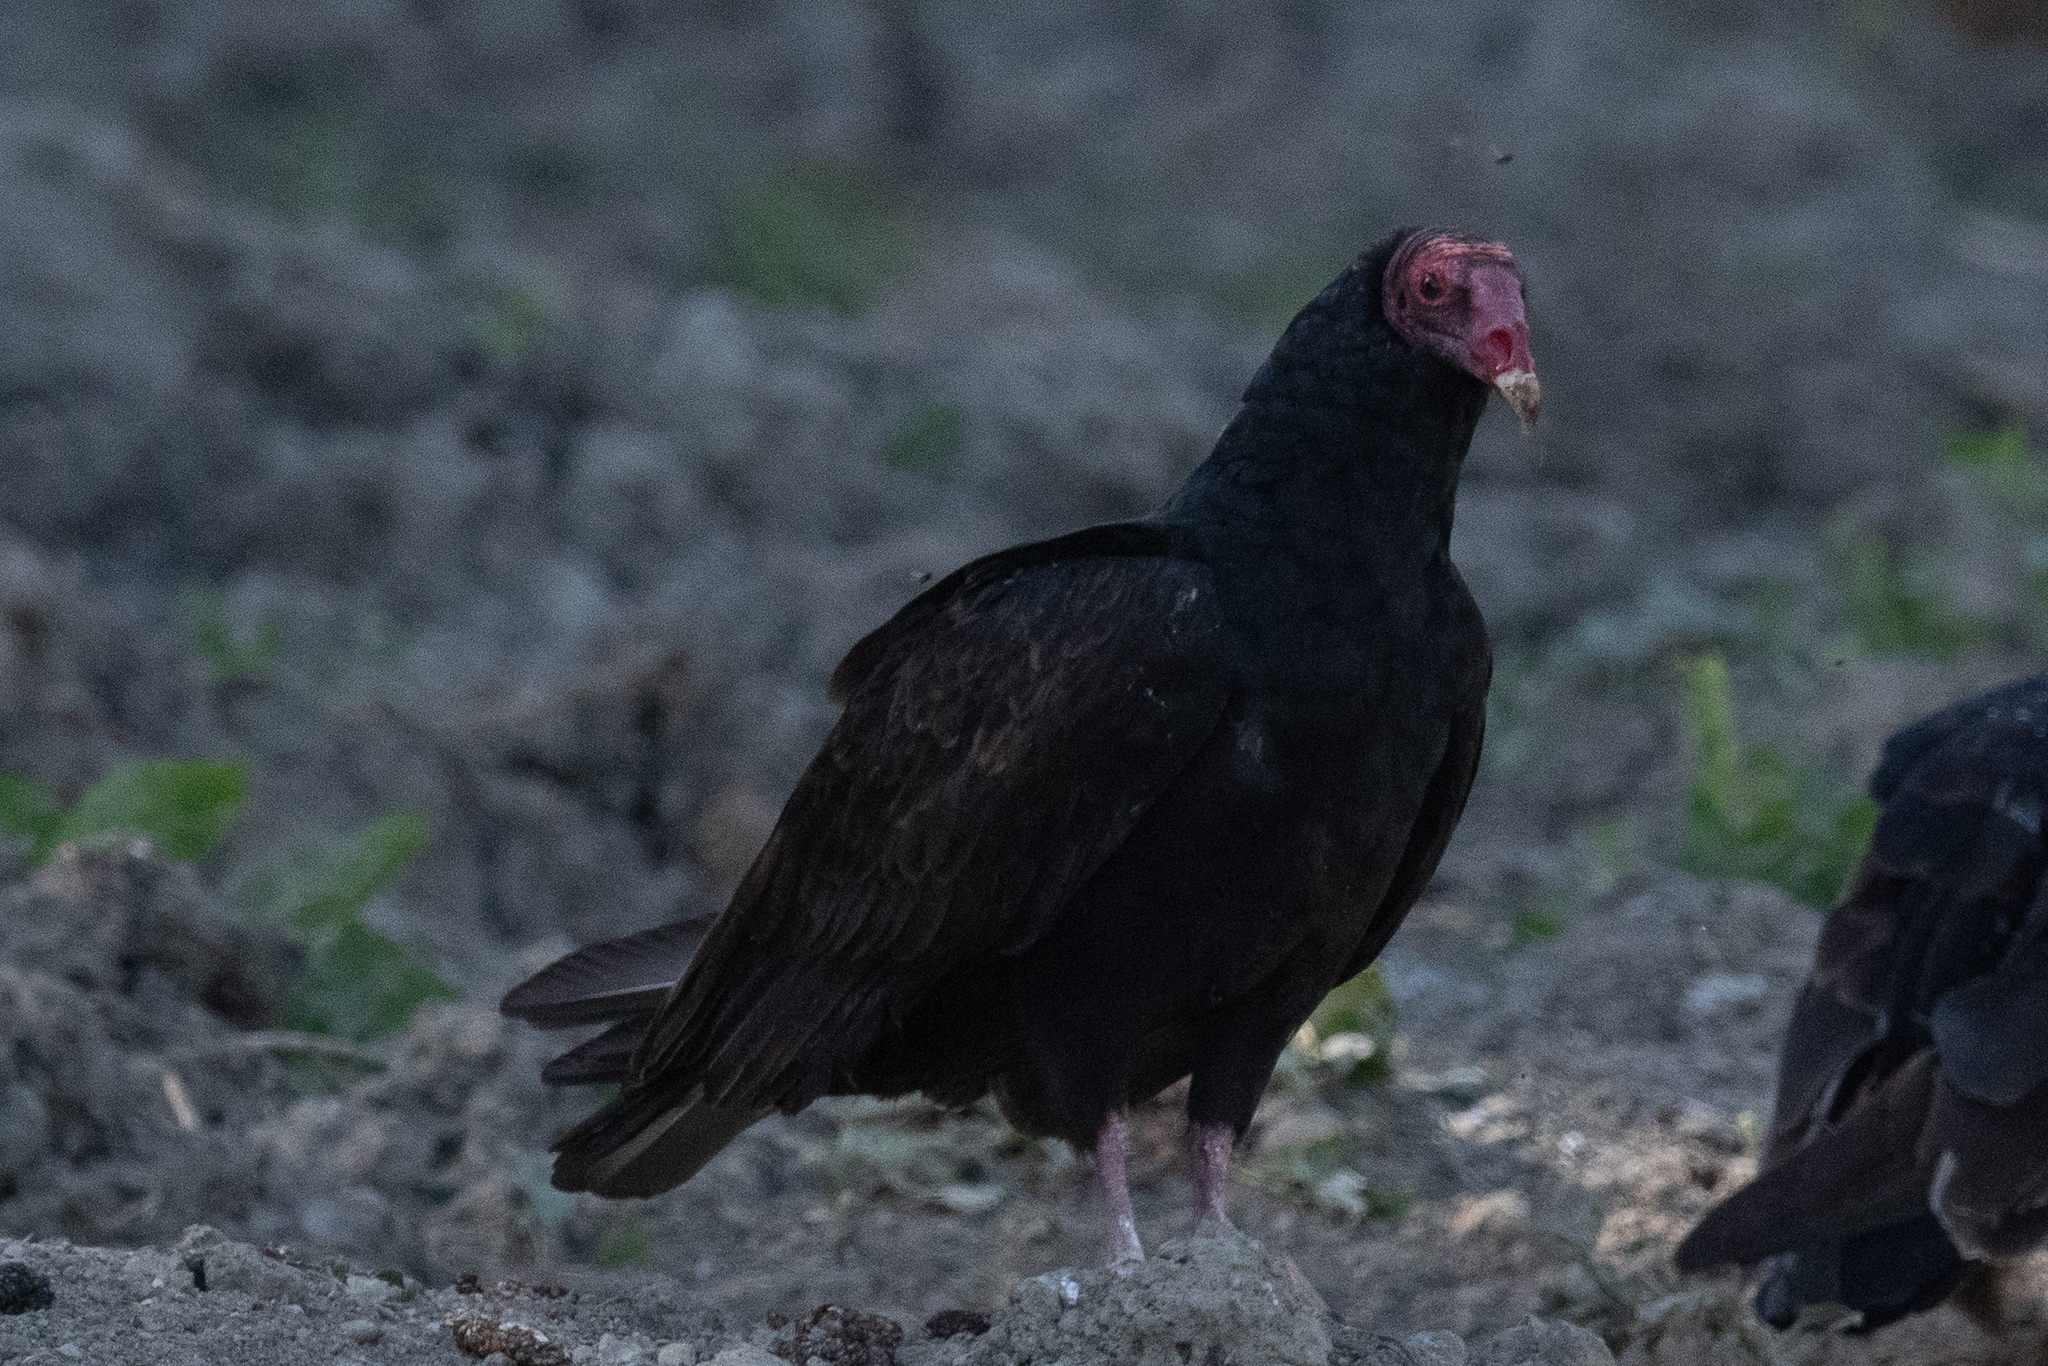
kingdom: Animalia
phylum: Chordata
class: Aves
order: Accipitriformes
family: Cathartidae
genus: Cathartes
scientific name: Cathartes aura
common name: Turkey vulture
